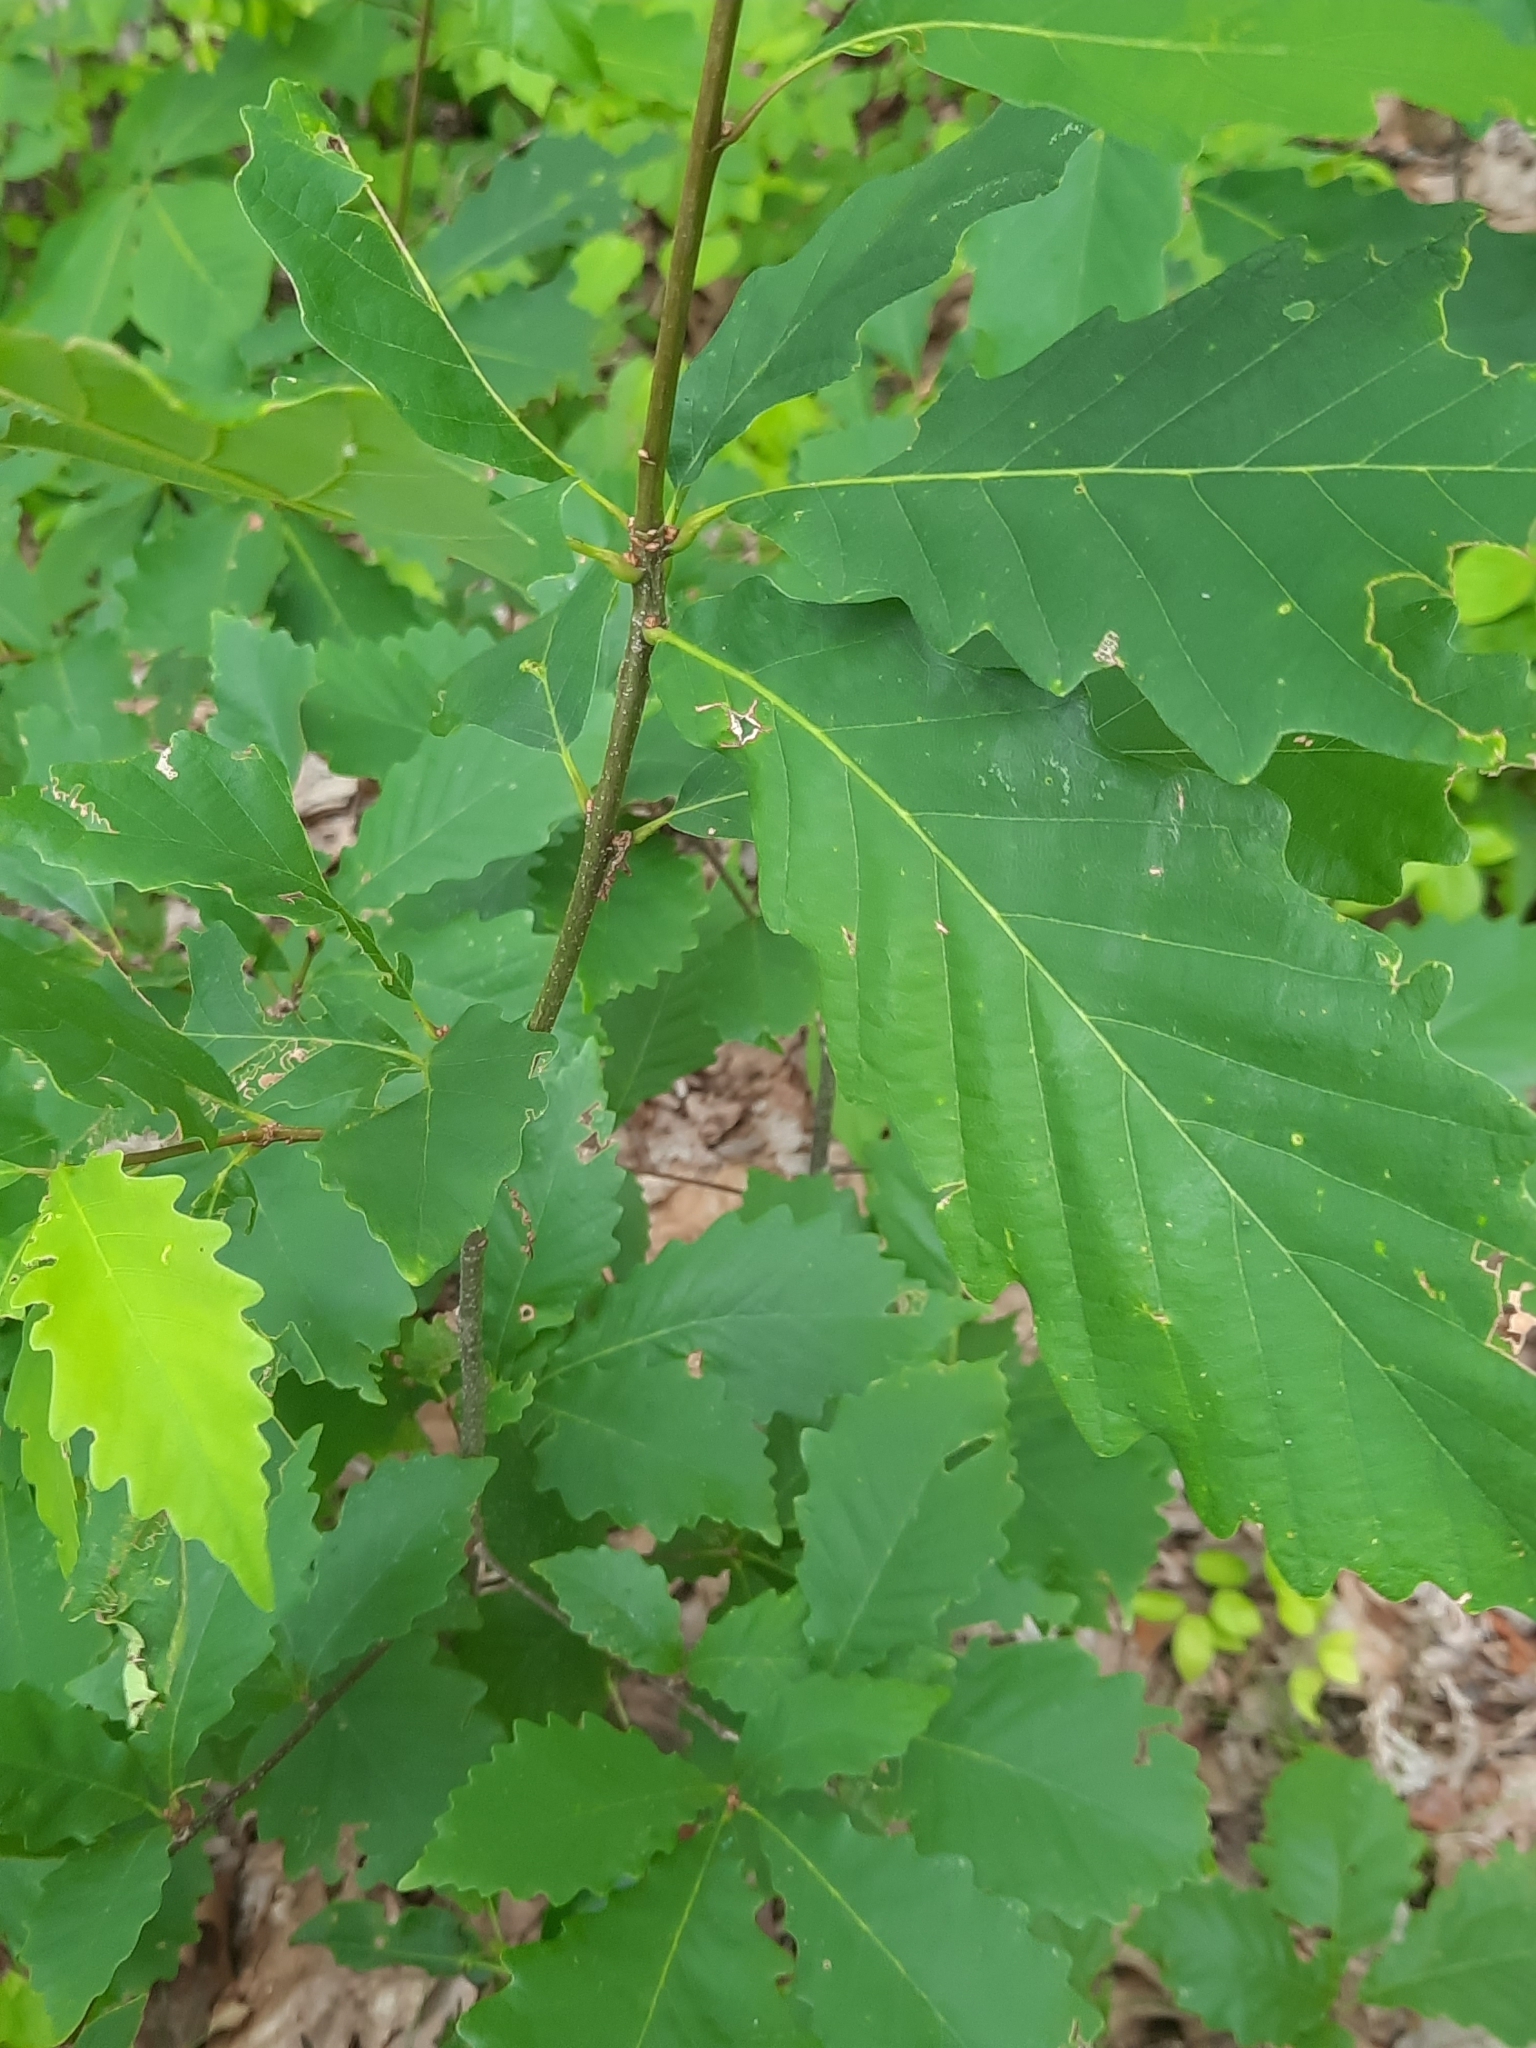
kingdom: Plantae
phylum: Tracheophyta
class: Magnoliopsida
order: Fagales
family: Fagaceae
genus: Quercus
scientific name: Quercus montana
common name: Chestnut oak
